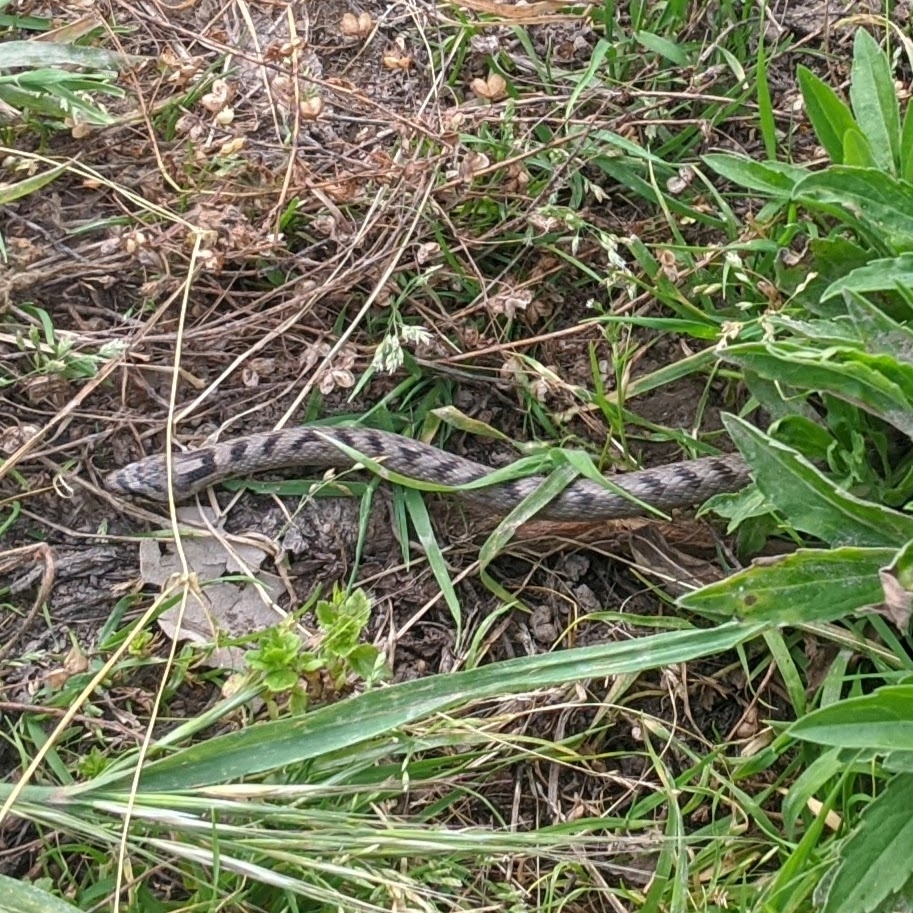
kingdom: Animalia
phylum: Chordata
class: Squamata
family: Colubridae
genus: Coronella
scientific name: Coronella girondica
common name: Southern smooth snake
